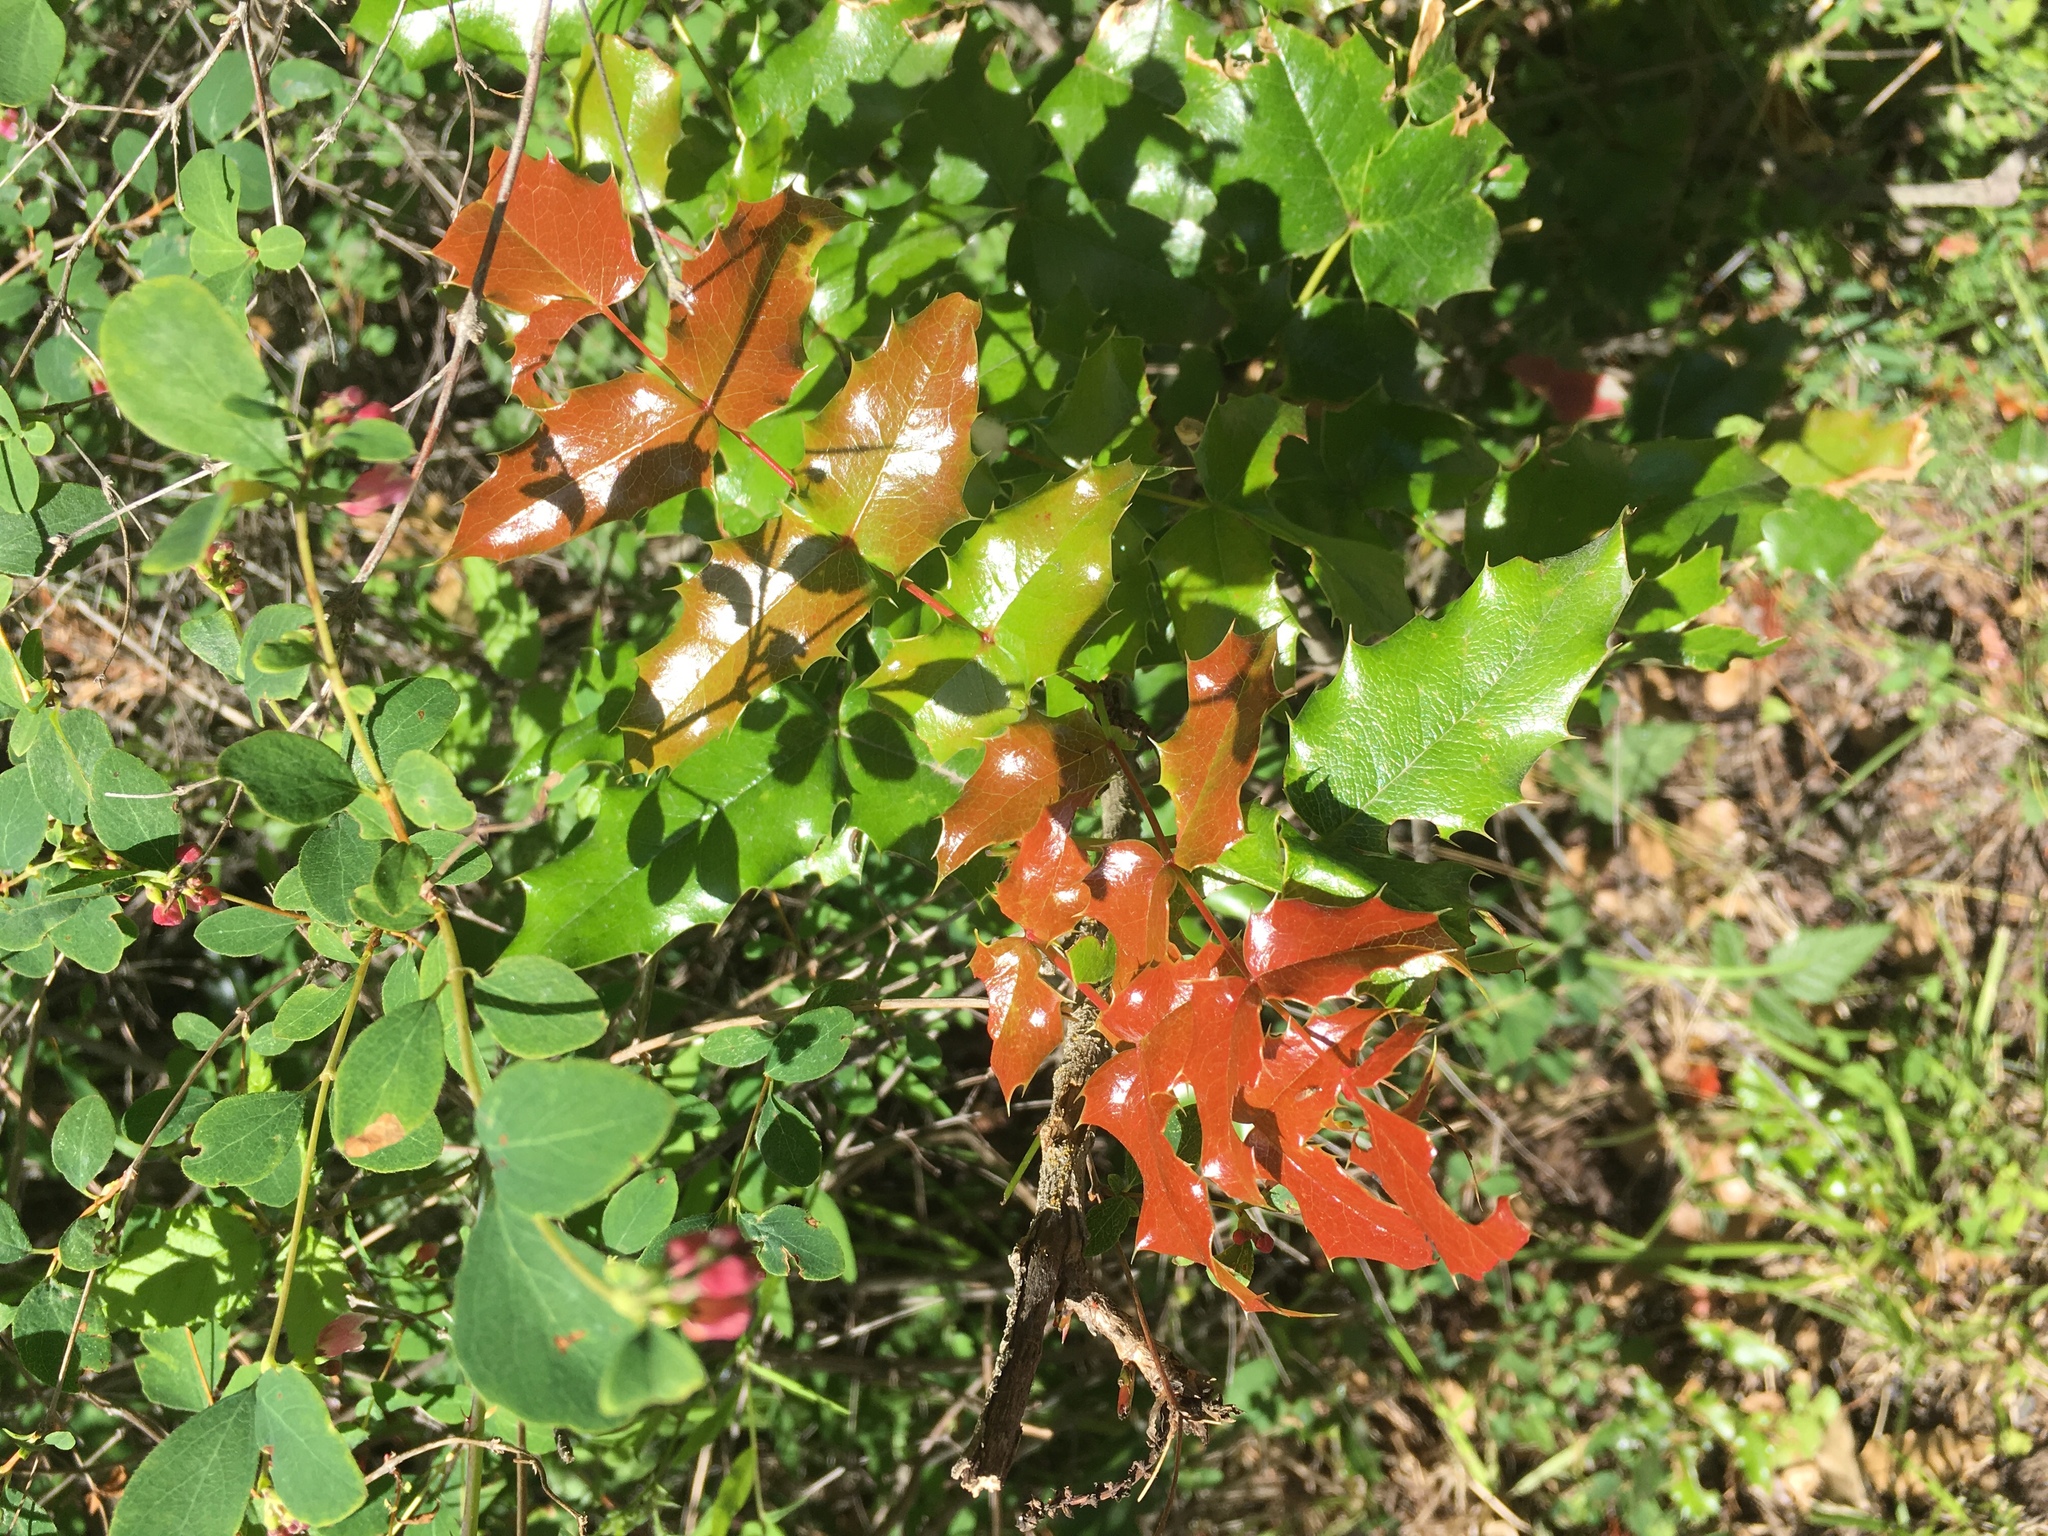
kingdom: Plantae
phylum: Tracheophyta
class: Magnoliopsida
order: Ranunculales
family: Berberidaceae
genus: Mahonia
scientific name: Mahonia aquifolium
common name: Oregon-grape
